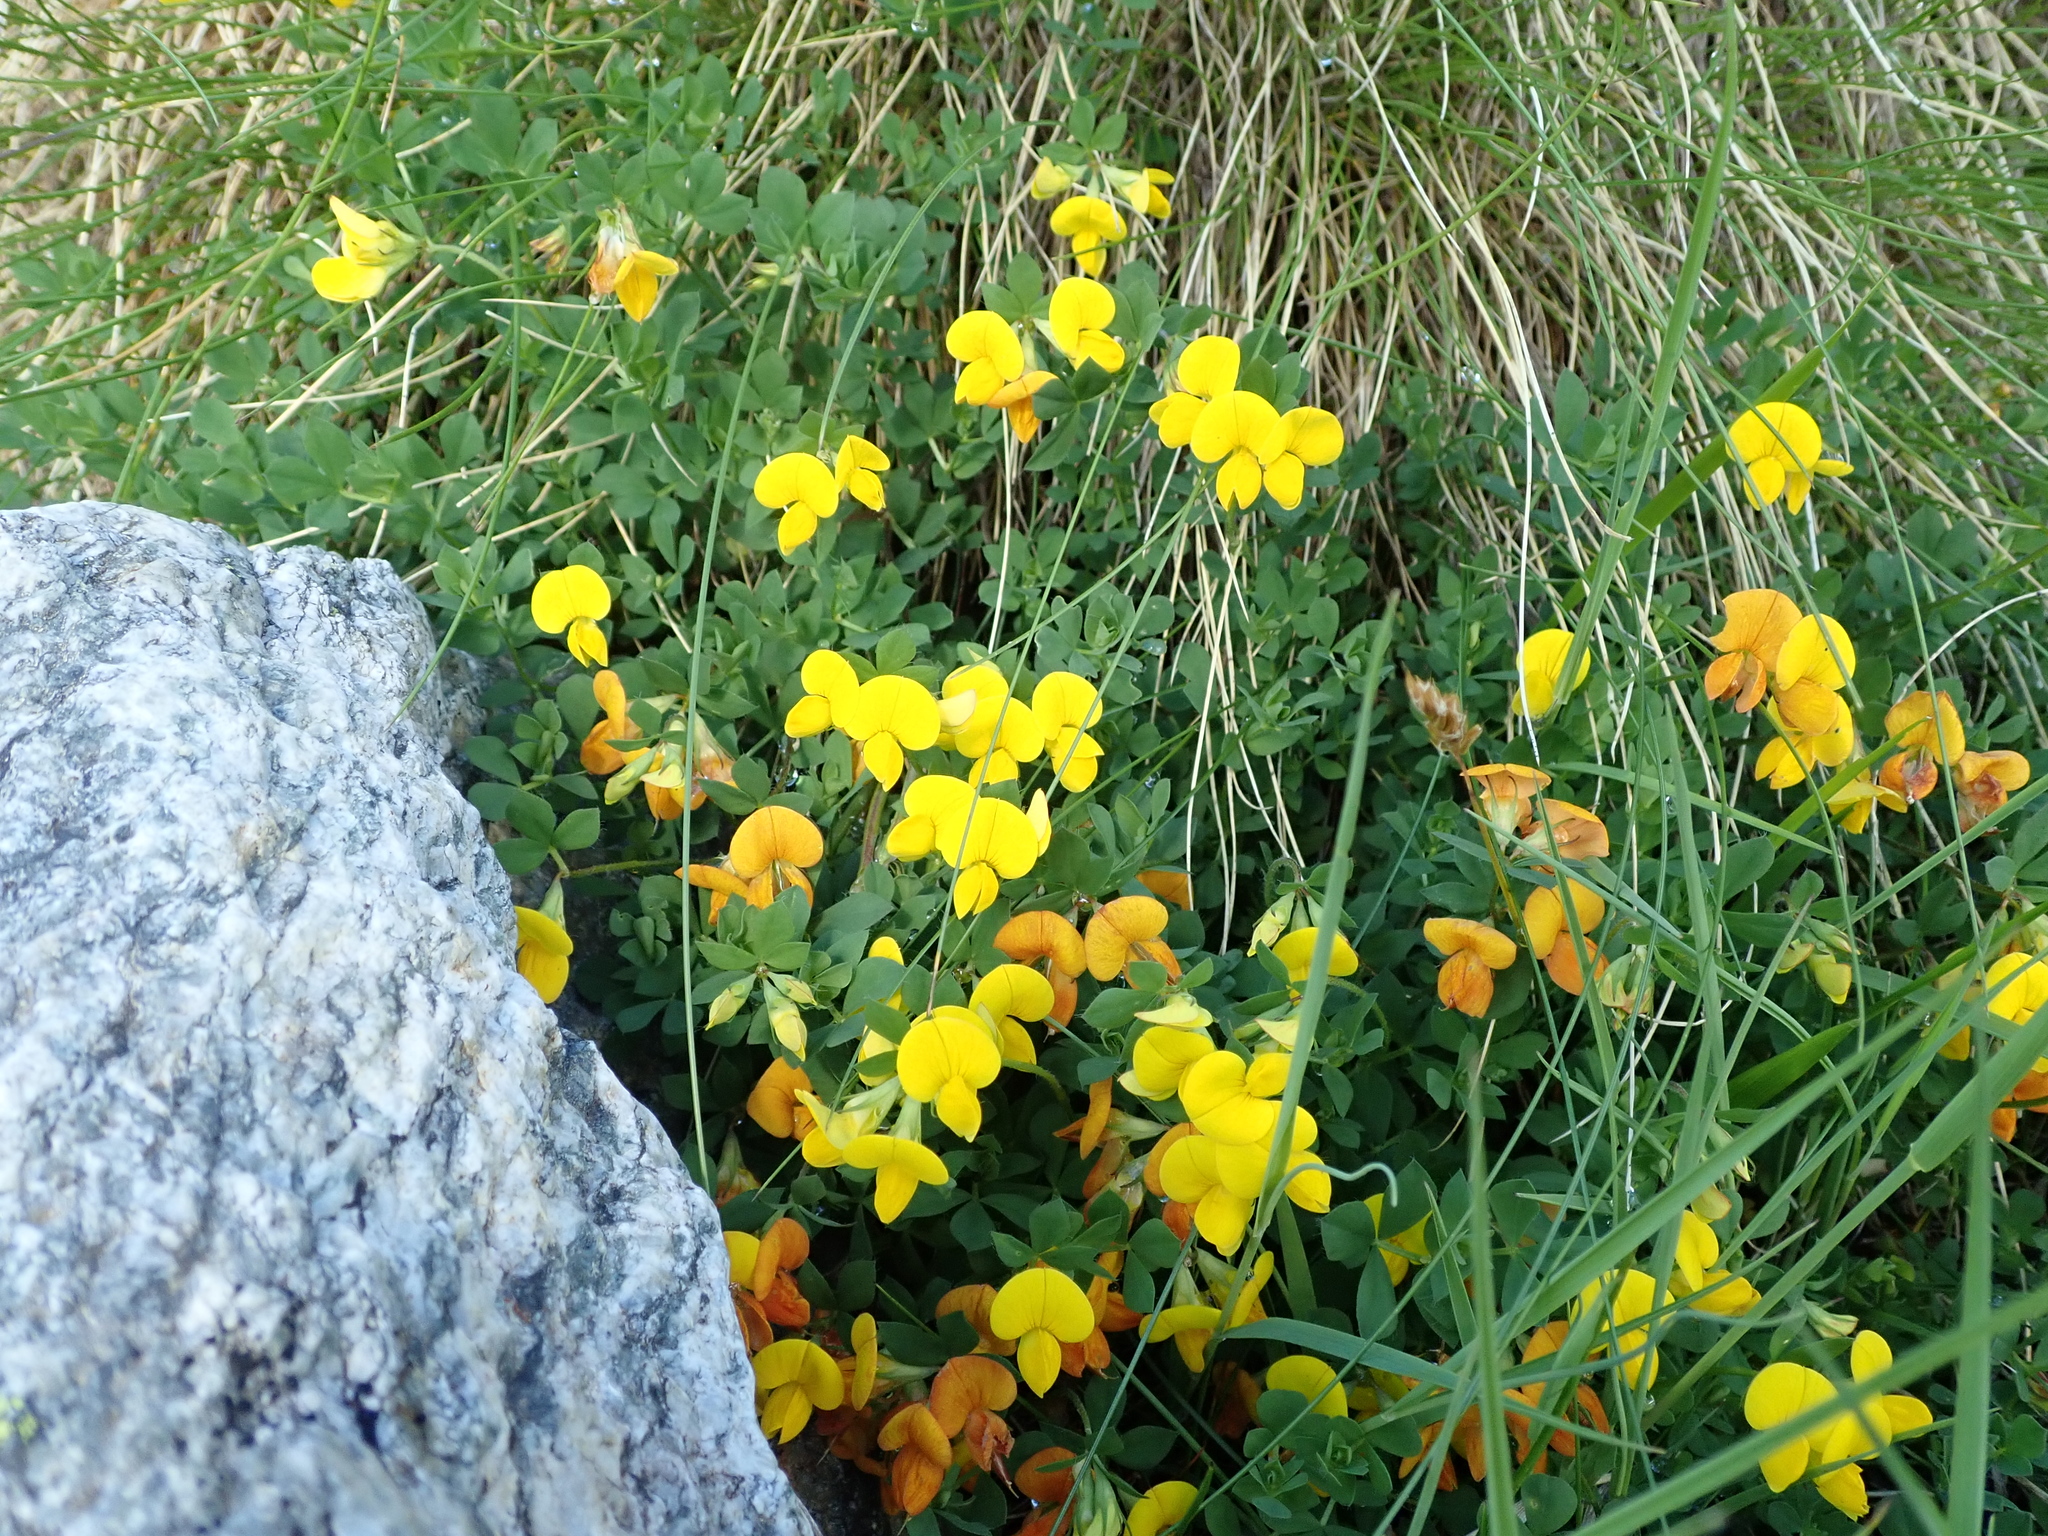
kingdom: Plantae
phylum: Tracheophyta
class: Magnoliopsida
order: Fabales
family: Fabaceae
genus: Lotus
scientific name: Lotus corniculatus
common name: Common bird's-foot-trefoil
